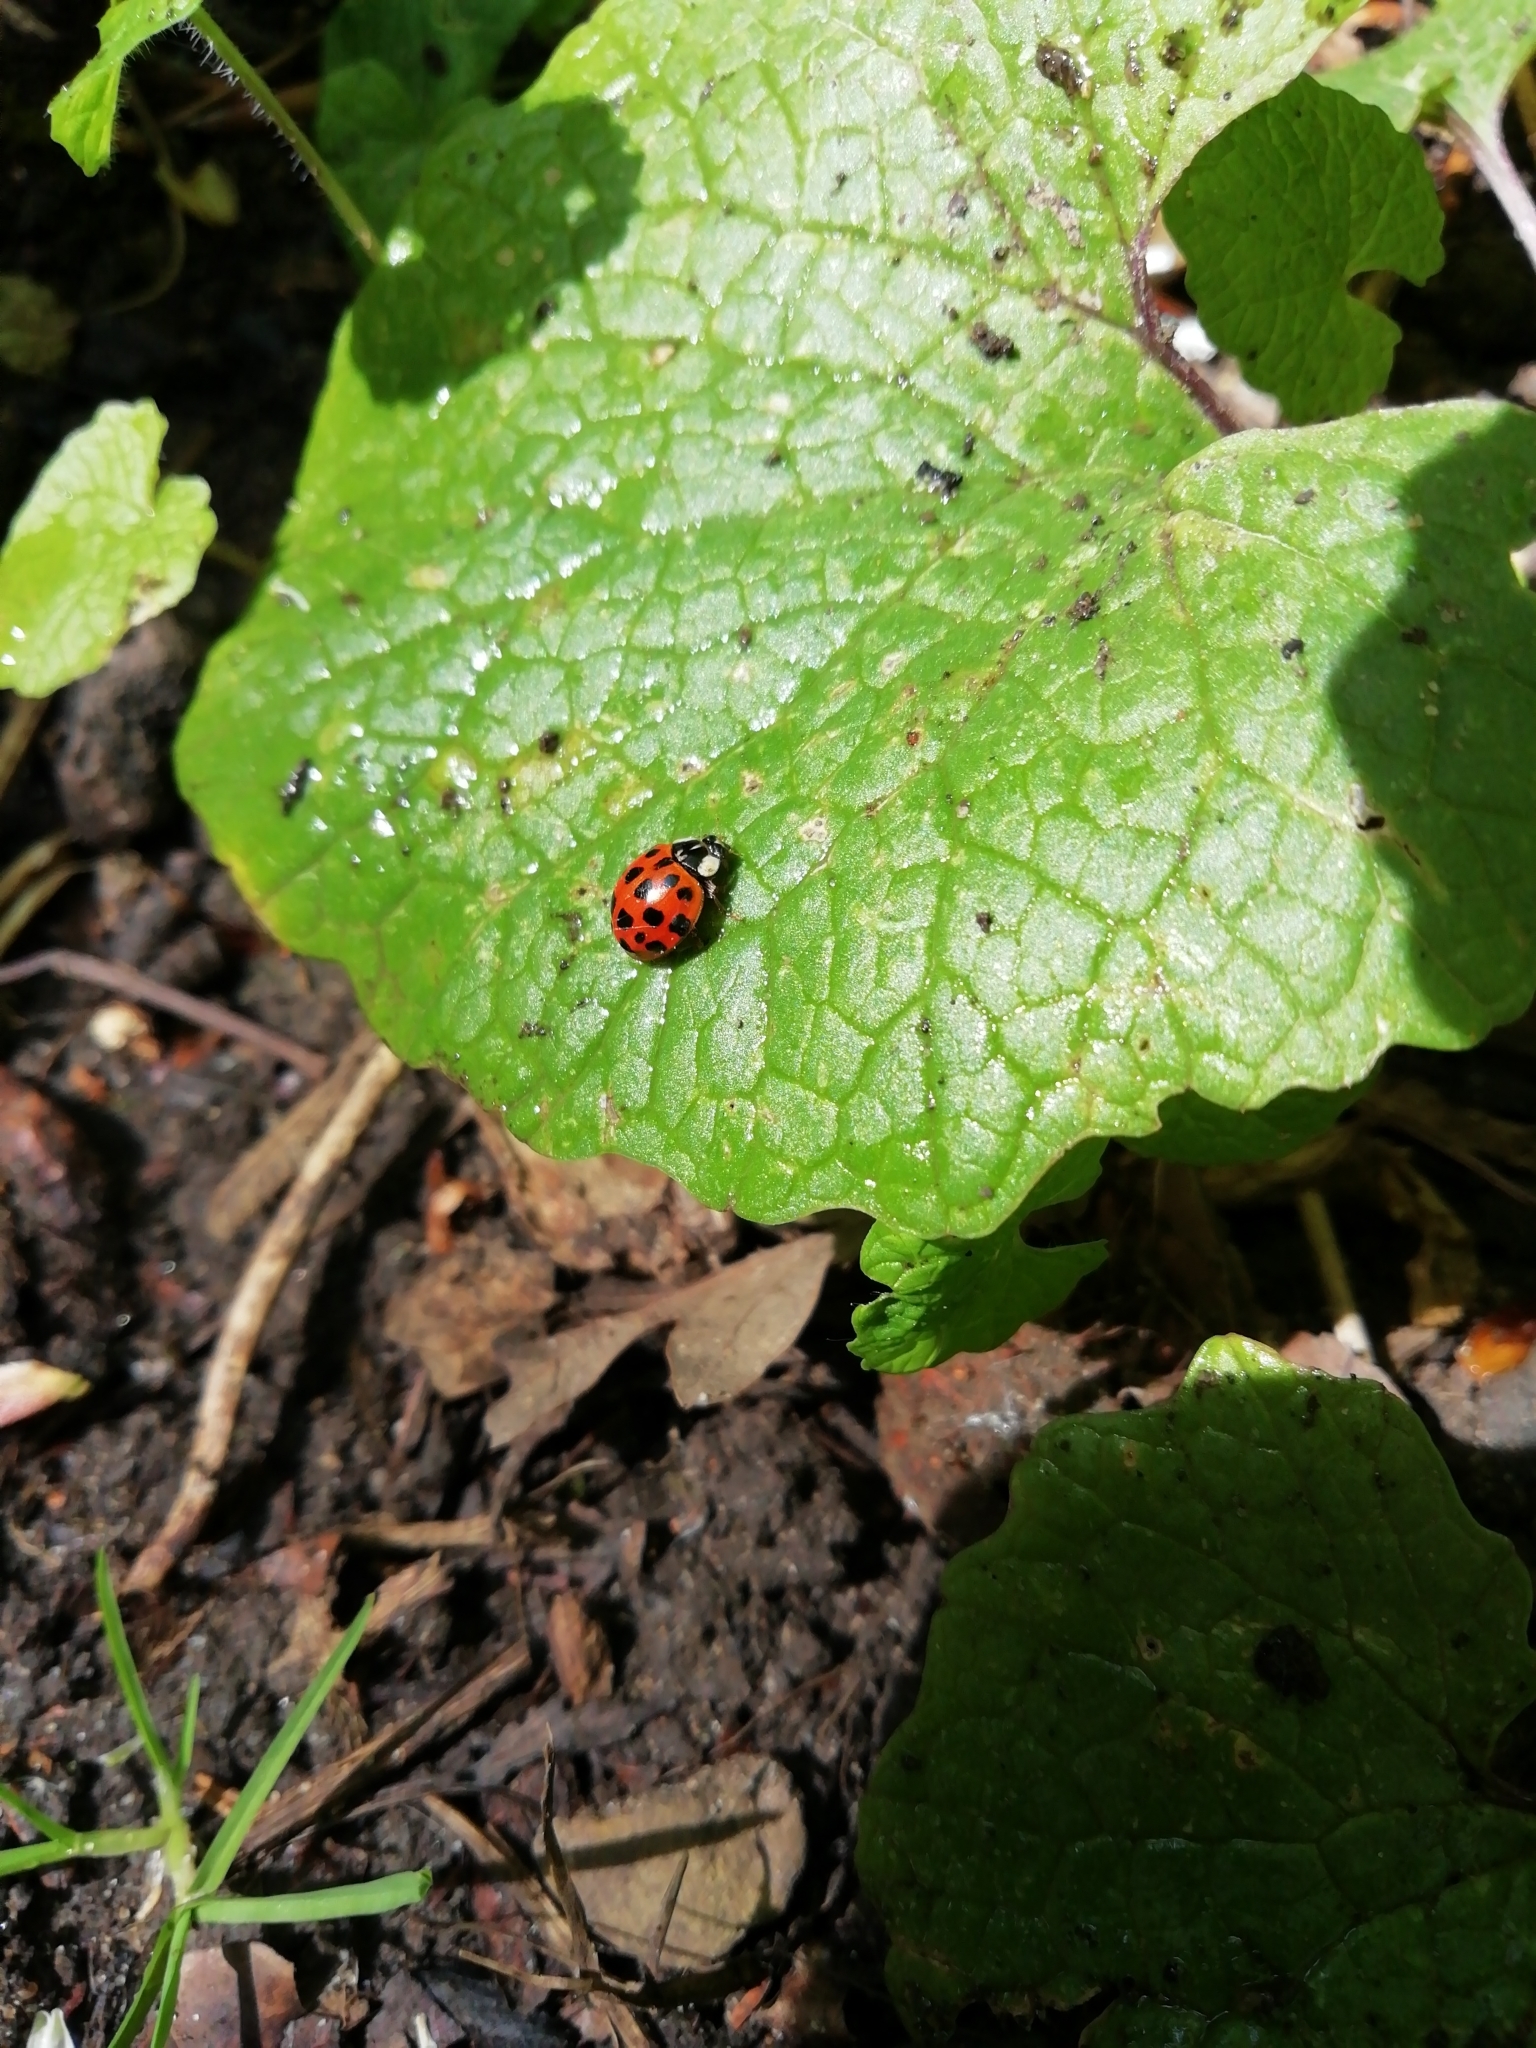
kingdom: Animalia
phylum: Arthropoda
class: Insecta
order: Coleoptera
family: Coccinellidae
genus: Harmonia
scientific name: Harmonia axyridis
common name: Harlequin ladybird
